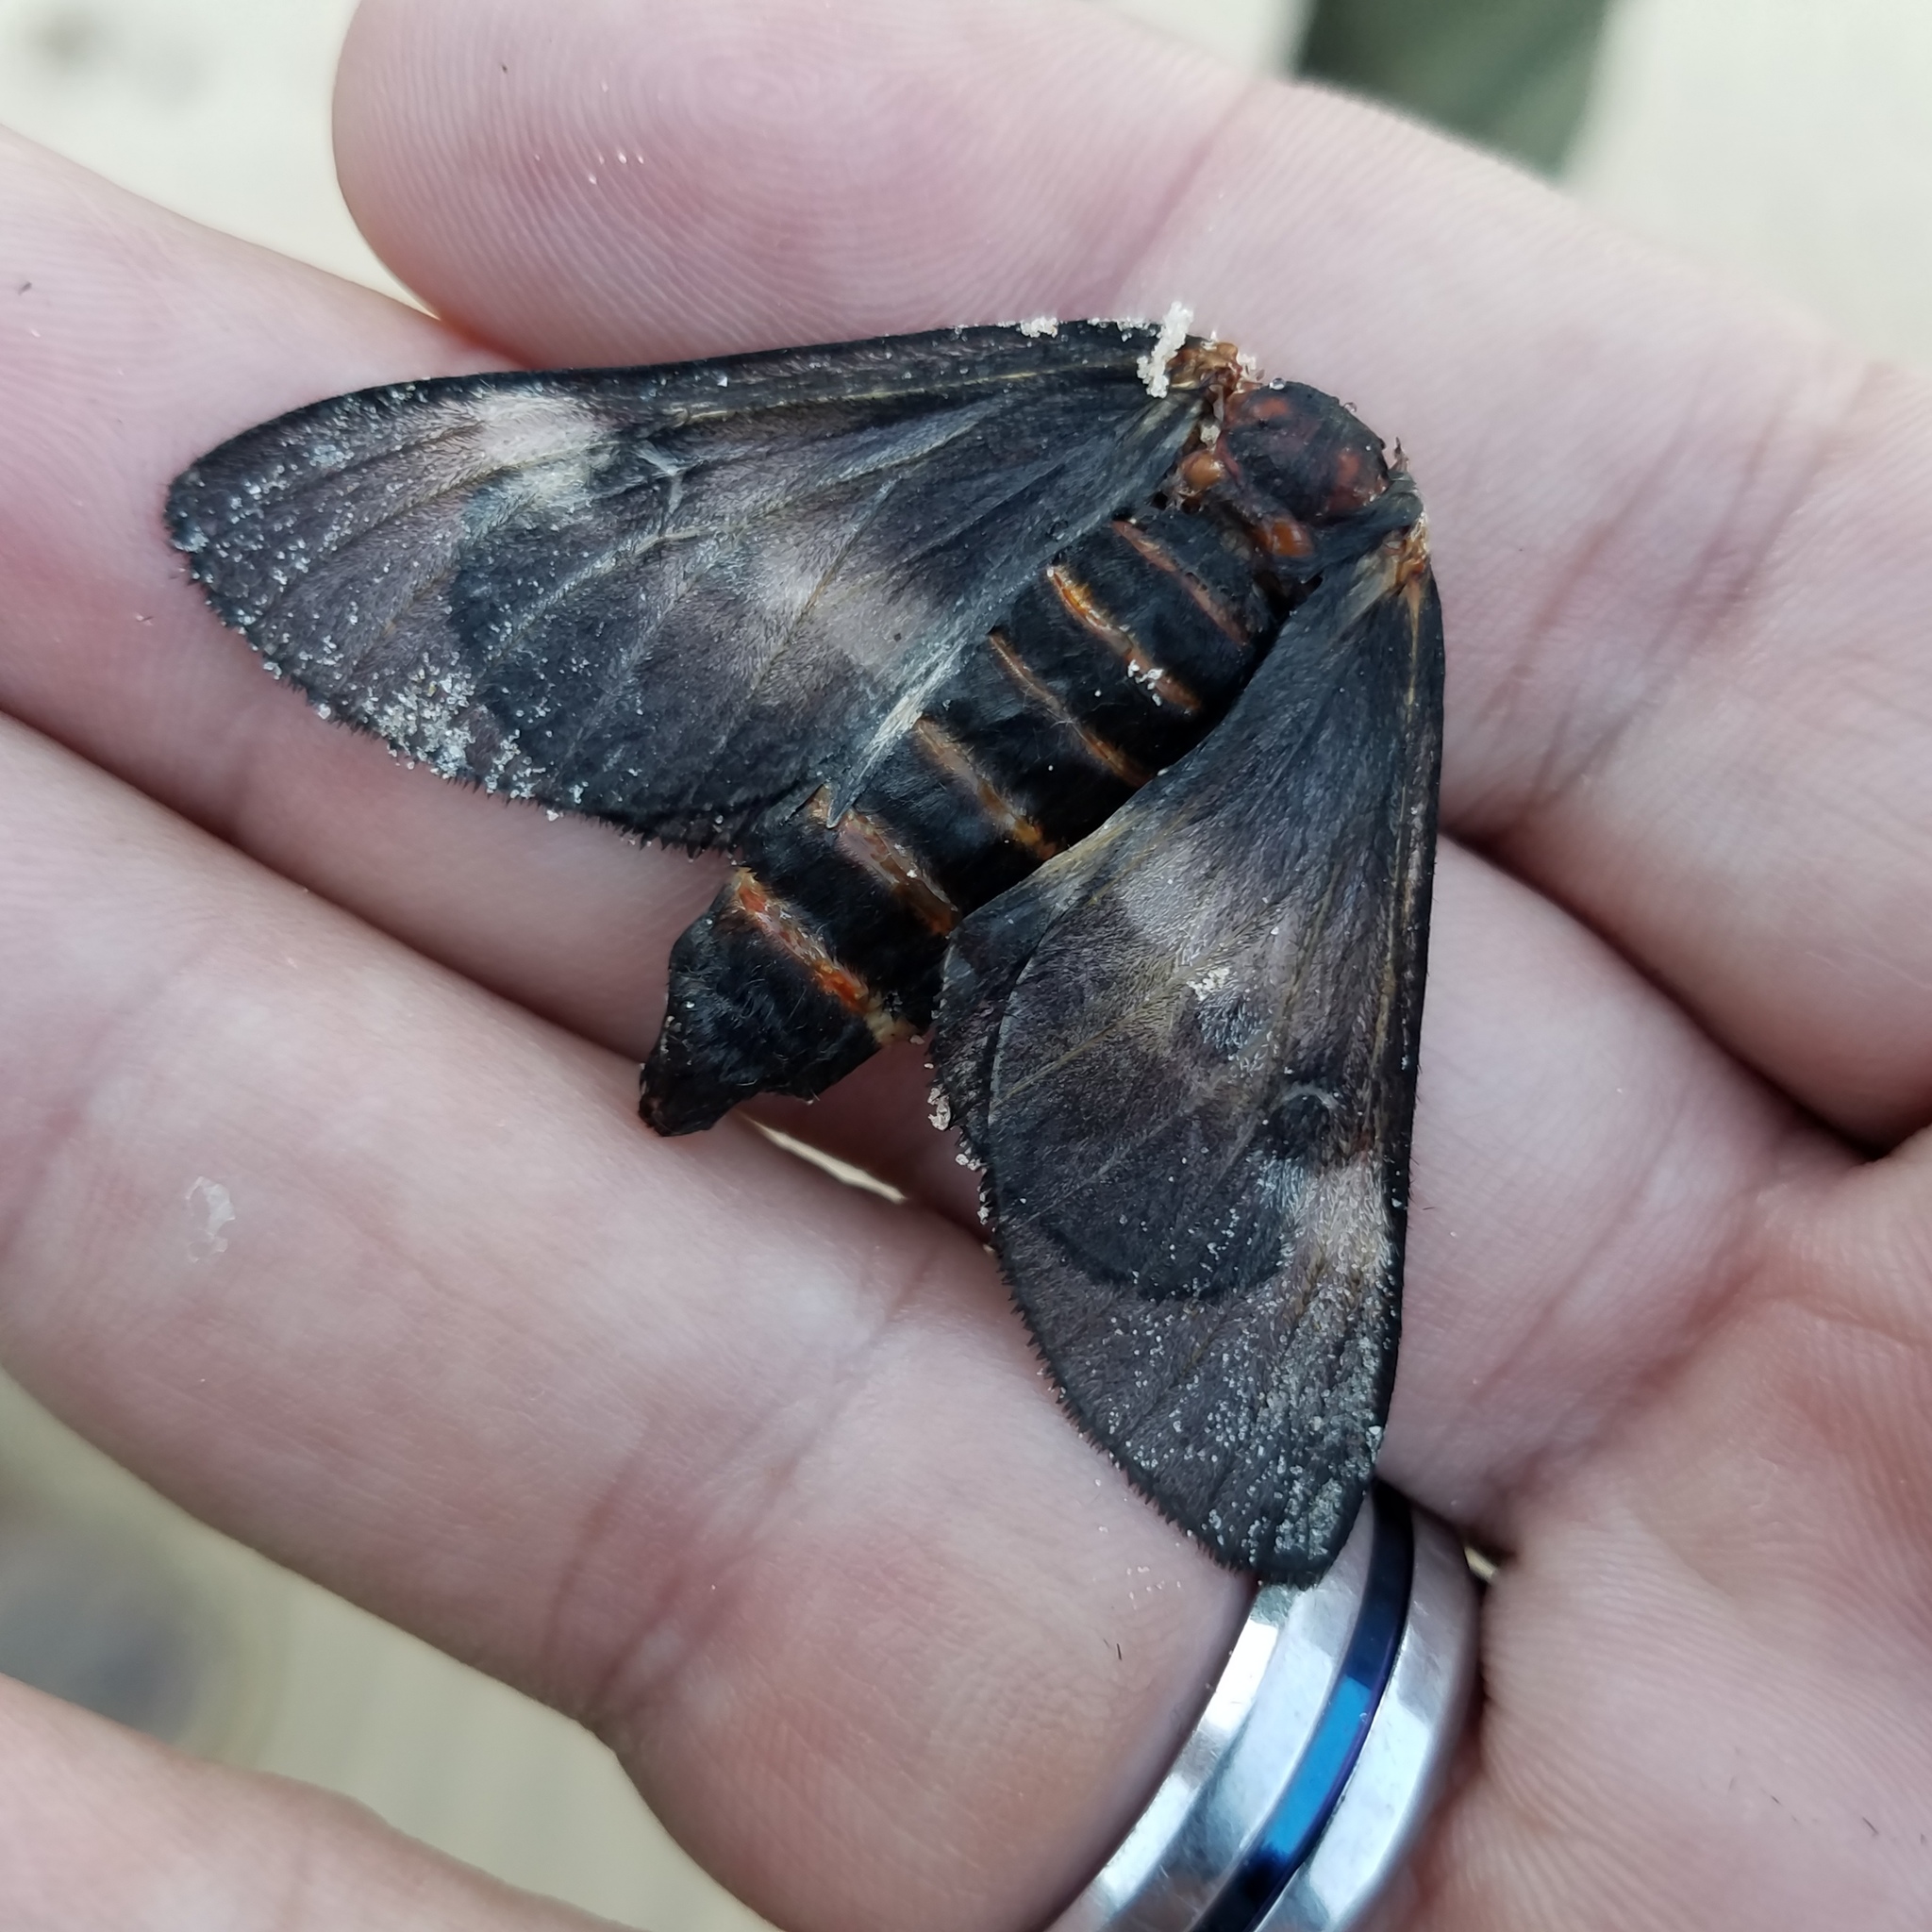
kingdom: Animalia
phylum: Arthropoda
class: Insecta
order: Lepidoptera
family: Saturniidae
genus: Hemileuca
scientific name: Hemileuca peigleri
